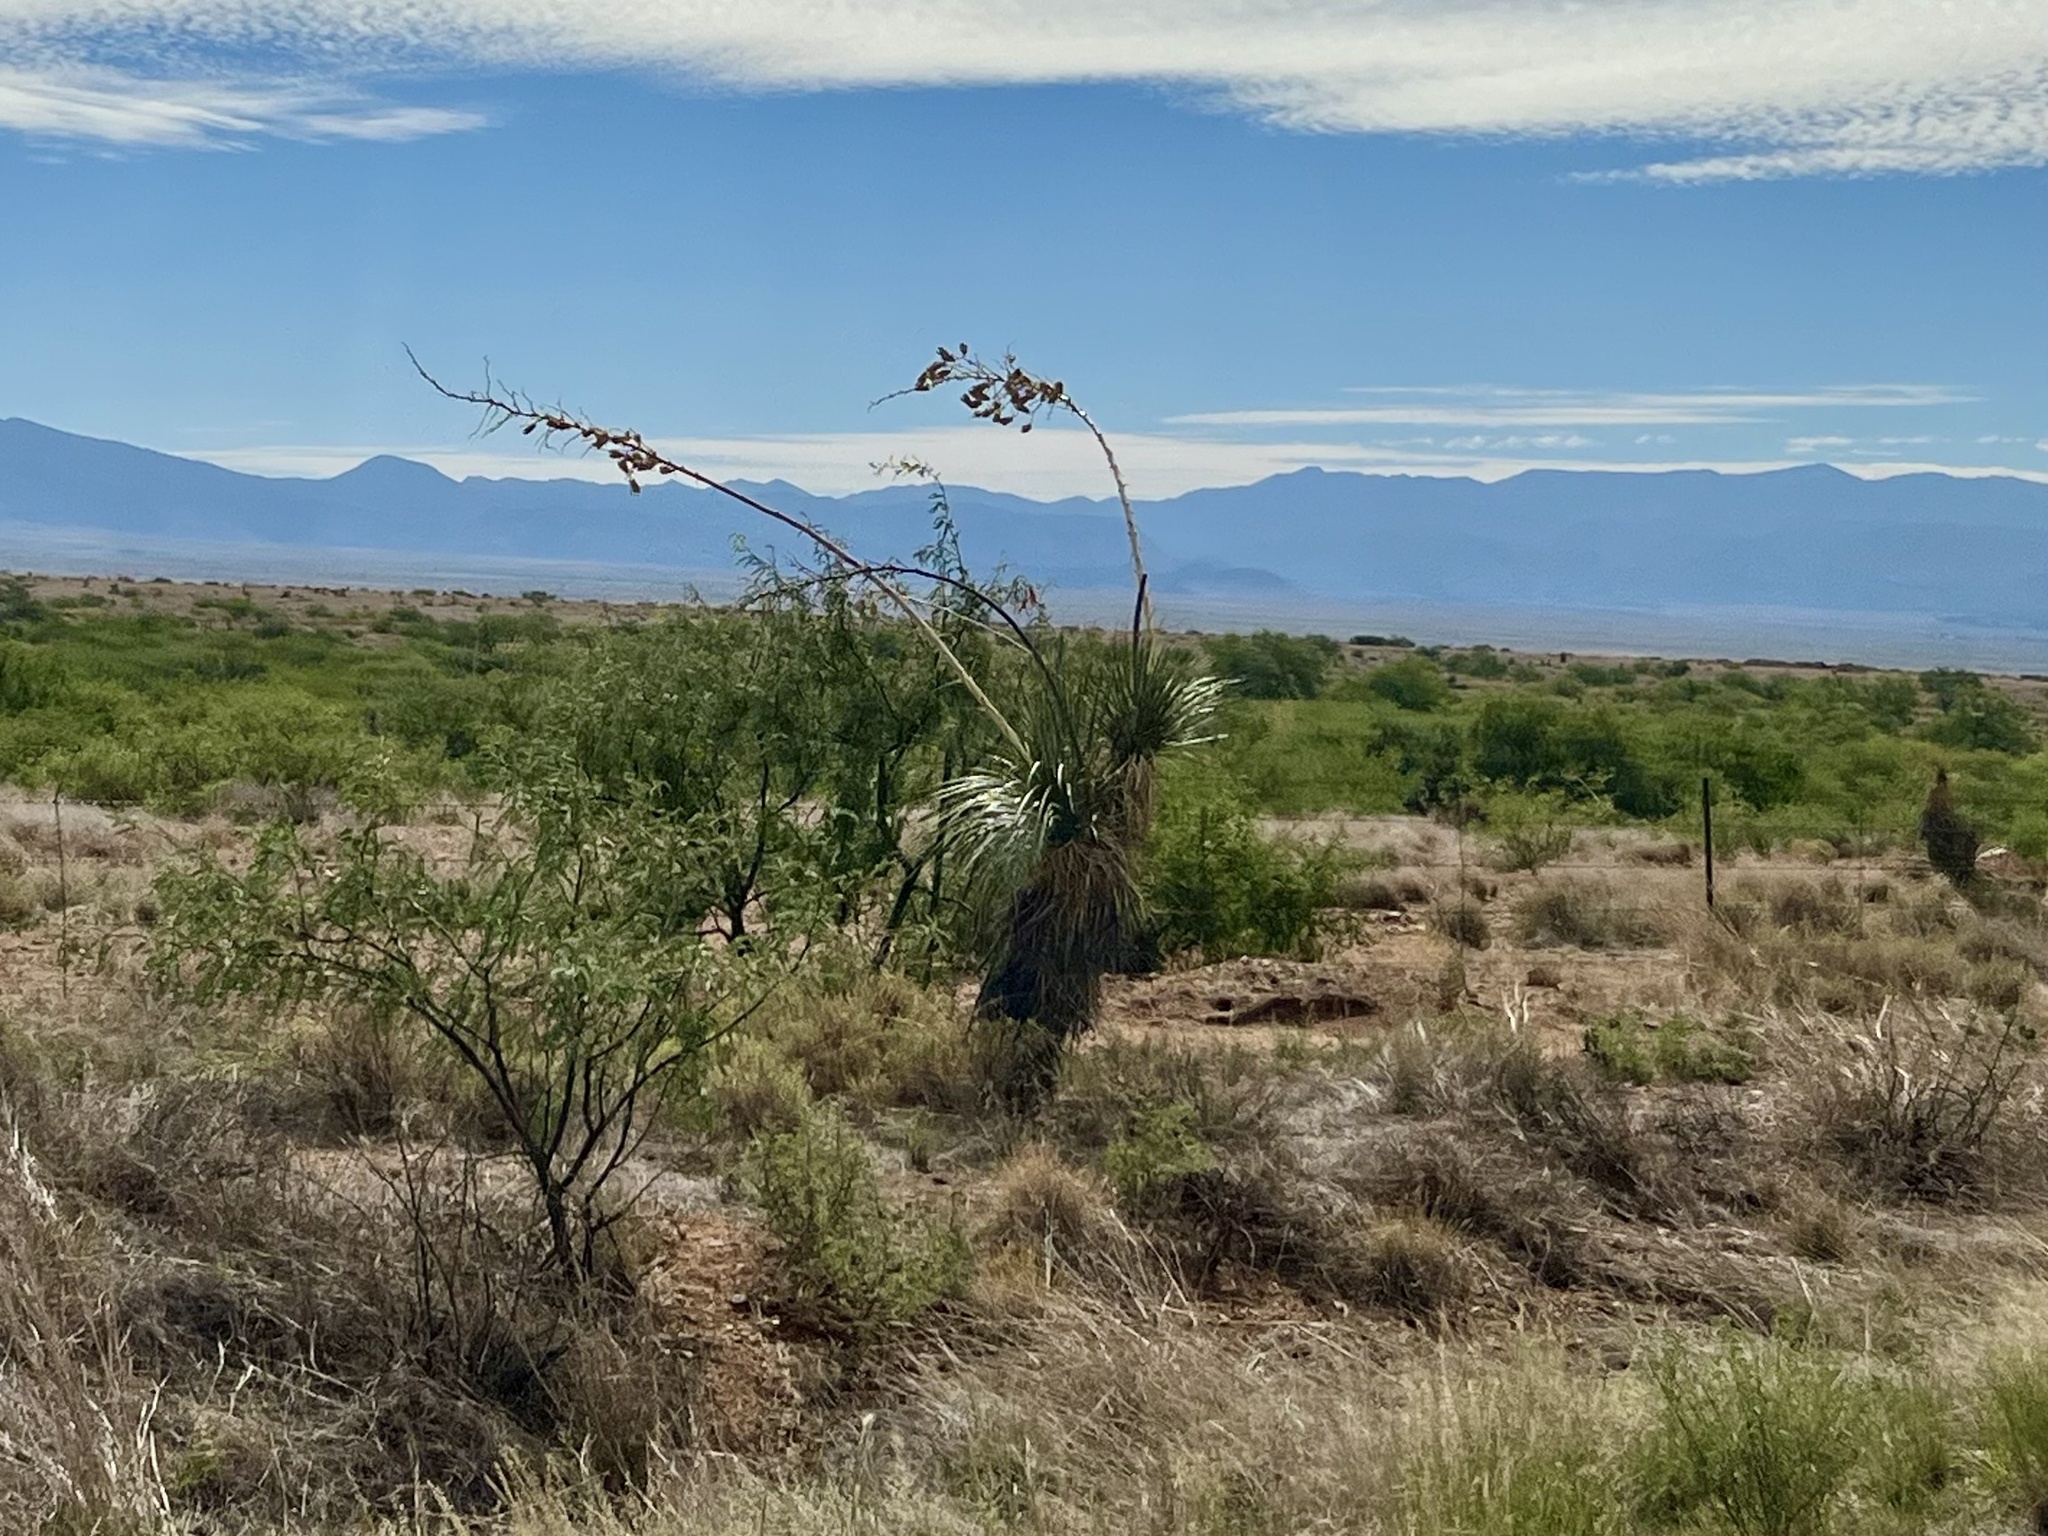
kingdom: Plantae
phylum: Tracheophyta
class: Liliopsida
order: Asparagales
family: Asparagaceae
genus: Yucca
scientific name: Yucca elata
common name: Palmella
